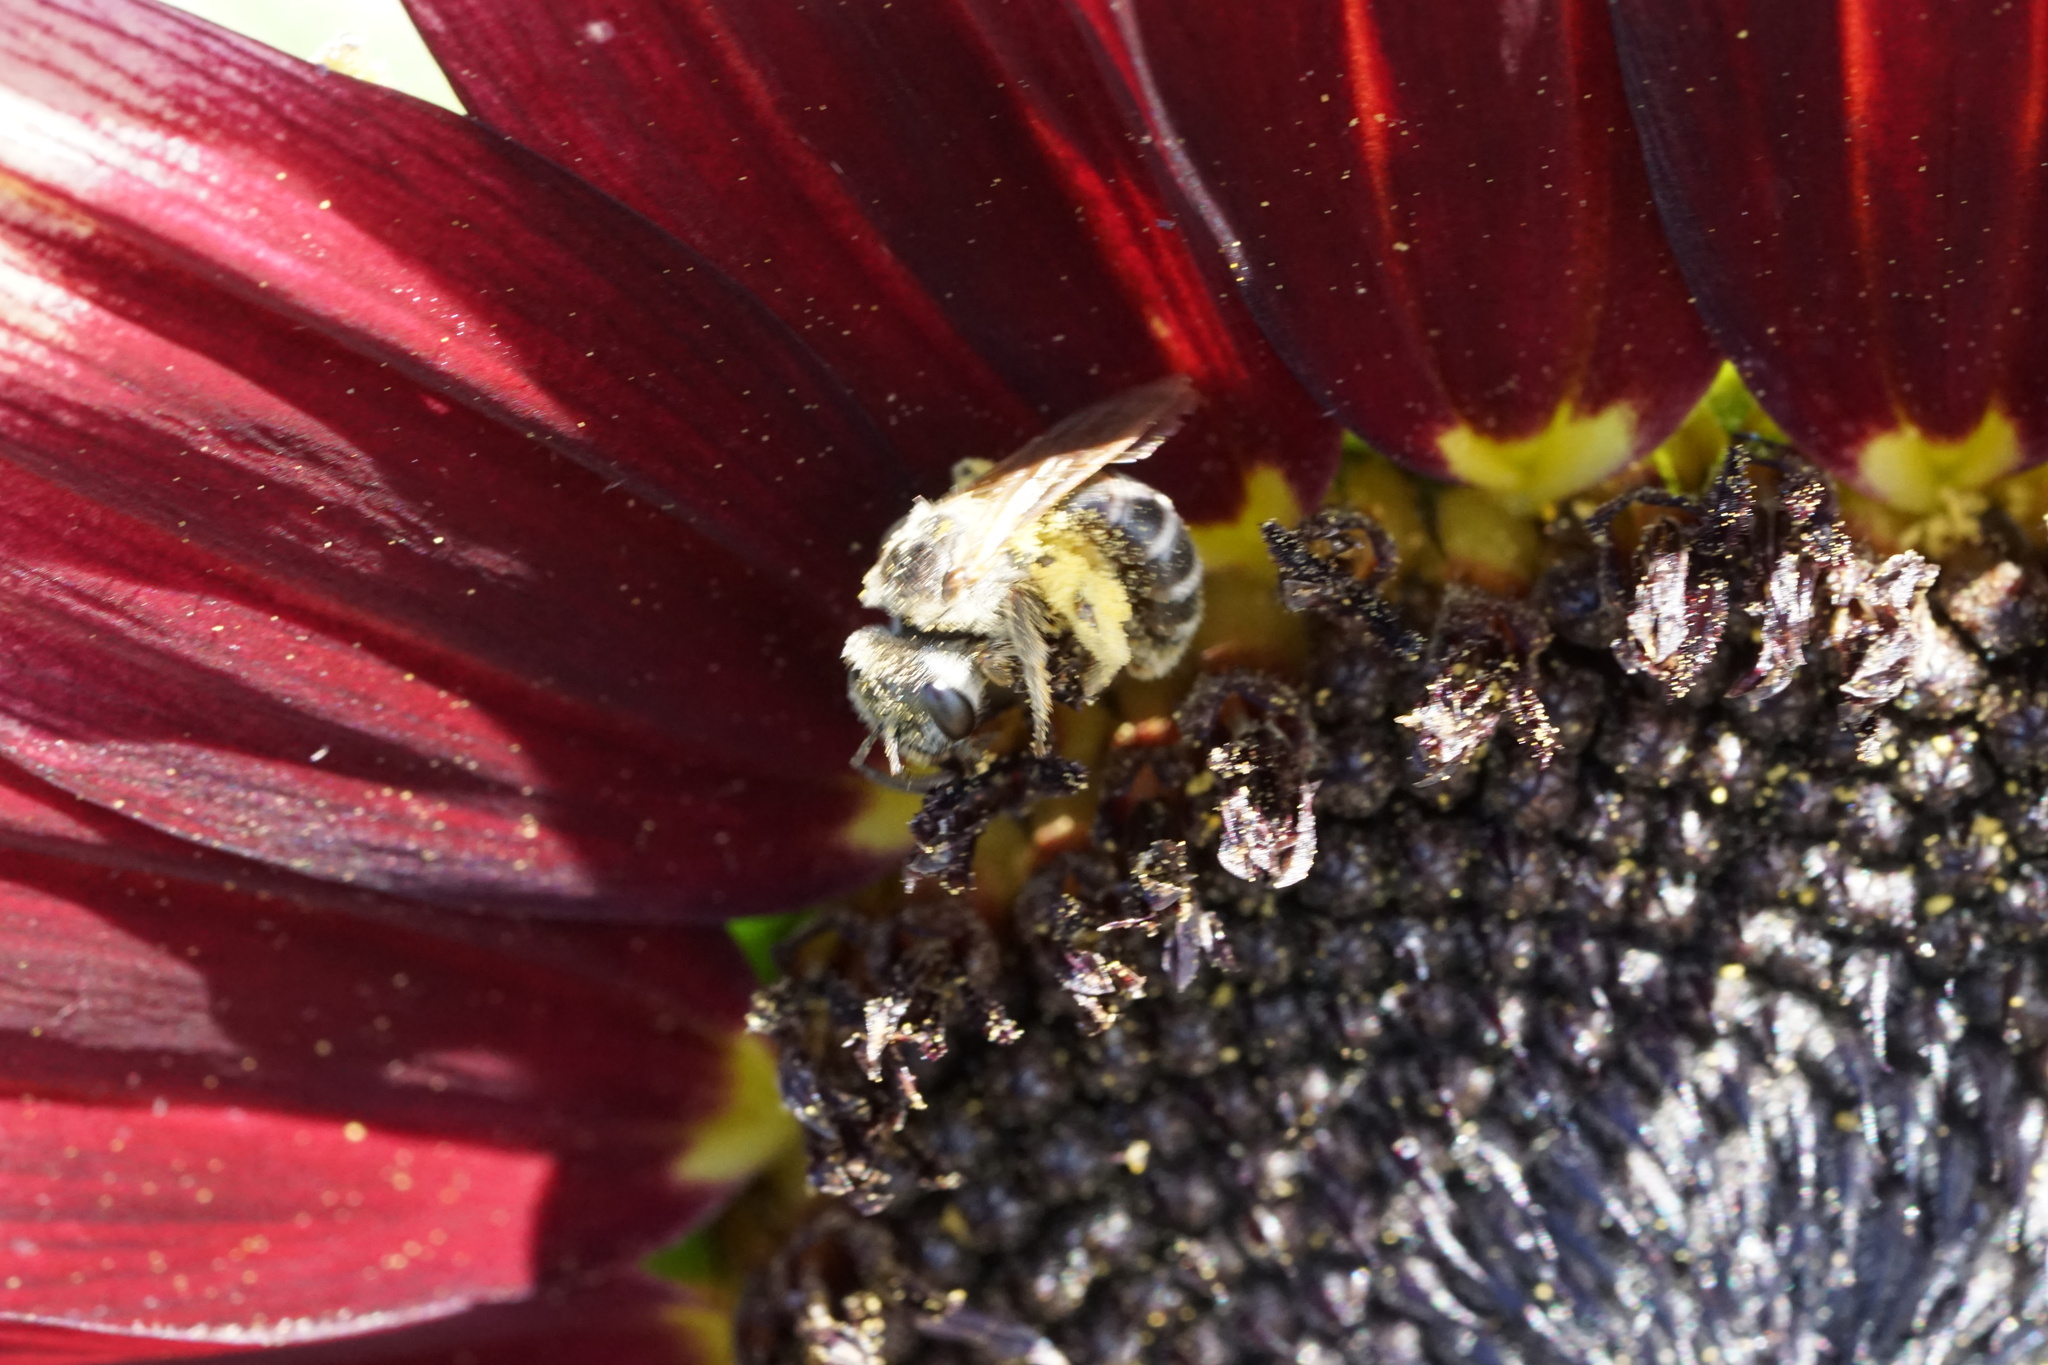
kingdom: Animalia
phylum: Arthropoda
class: Insecta
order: Hymenoptera
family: Halictidae
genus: Halictus
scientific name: Halictus ligatus
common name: Ligated furrow bee
